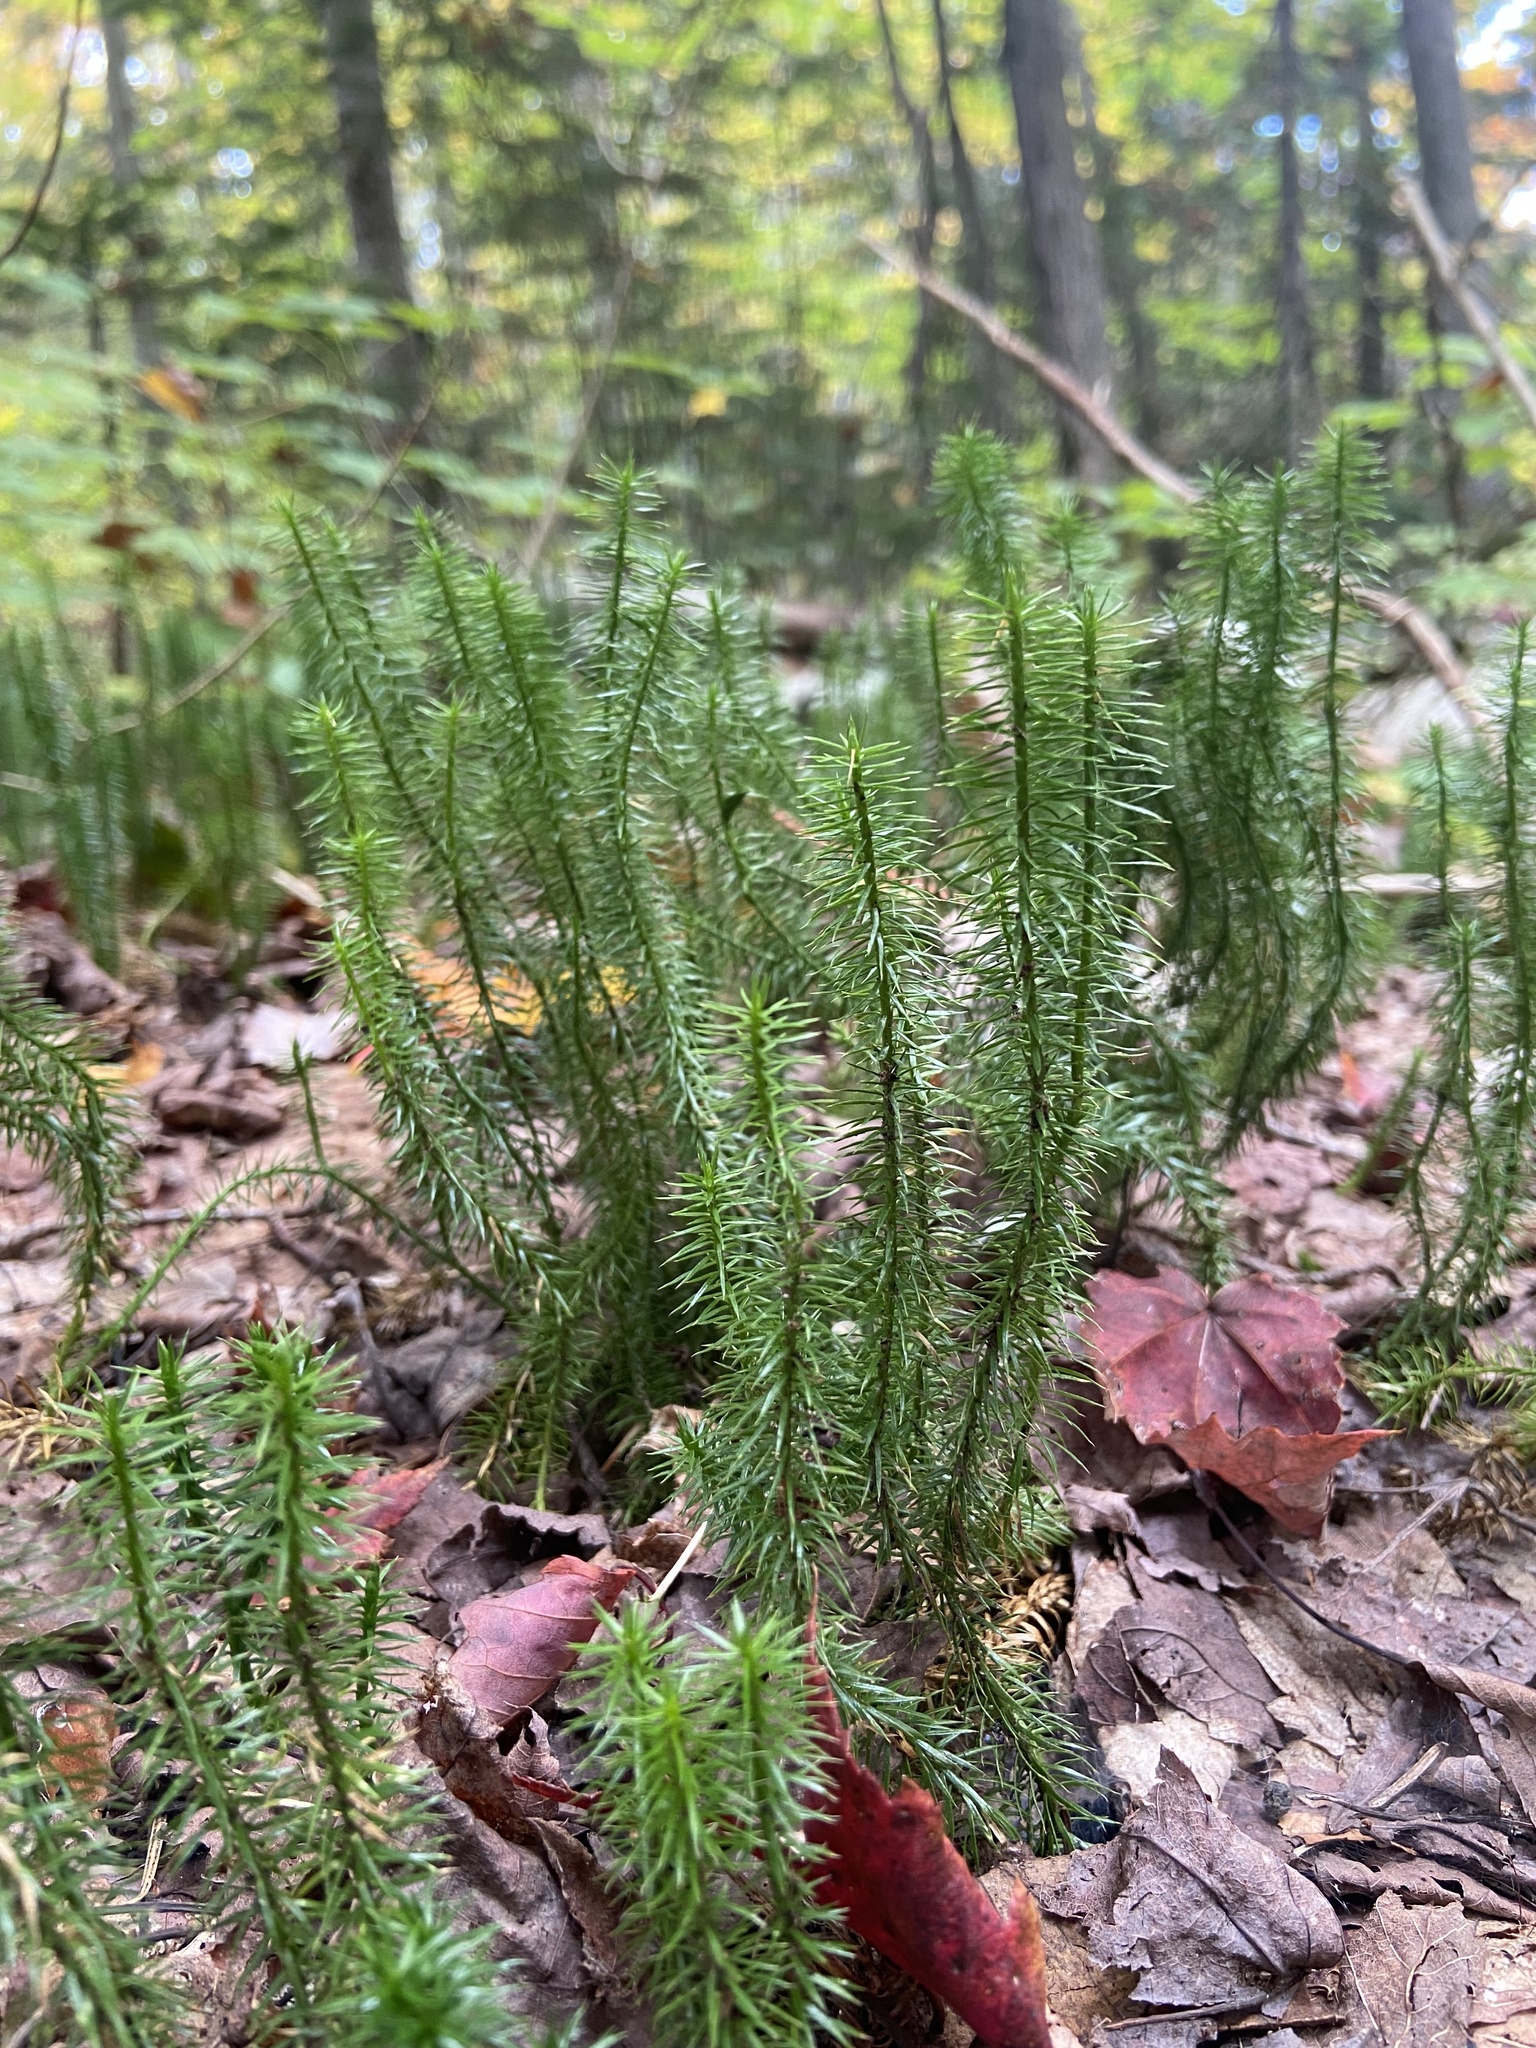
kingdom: Plantae
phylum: Tracheophyta
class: Lycopodiopsida
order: Lycopodiales
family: Lycopodiaceae
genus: Spinulum
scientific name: Spinulum annotinum
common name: Interrupted club-moss
